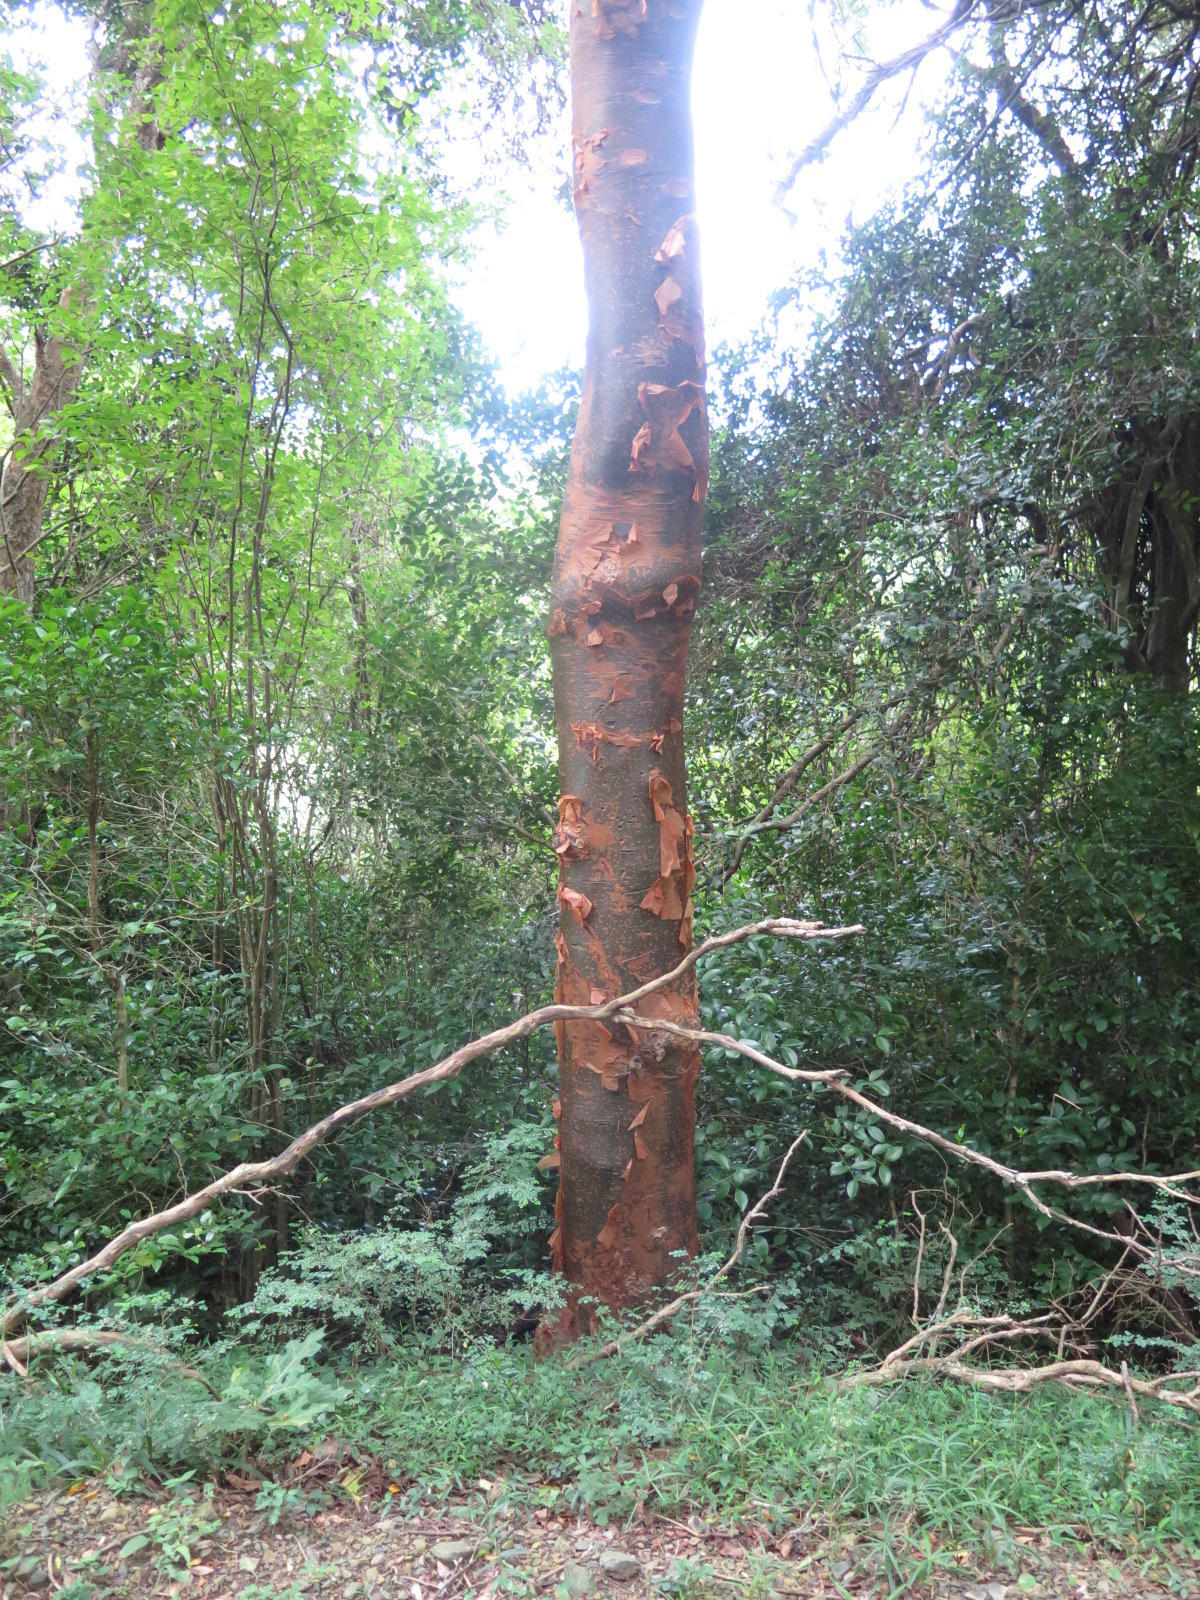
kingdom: Plantae
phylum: Tracheophyta
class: Magnoliopsida
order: Sapindales
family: Burseraceae
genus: Commiphora
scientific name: Commiphora harveyi
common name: Copper-stem corkwood
